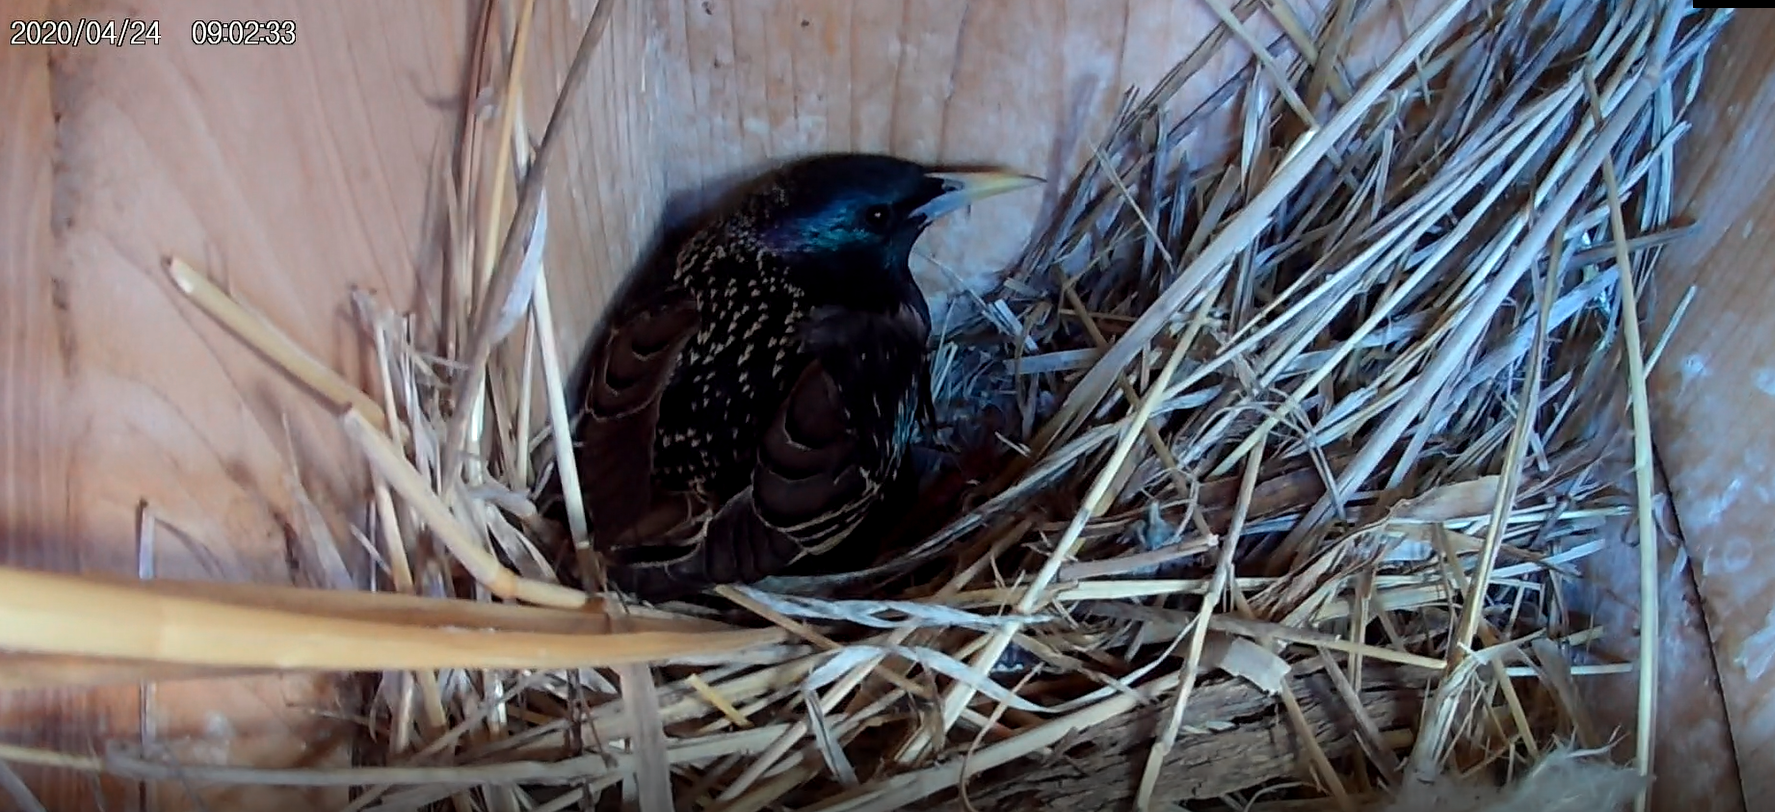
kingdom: Animalia
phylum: Chordata
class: Aves
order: Passeriformes
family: Sturnidae
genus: Sturnus
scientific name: Sturnus vulgaris
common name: Common starling
